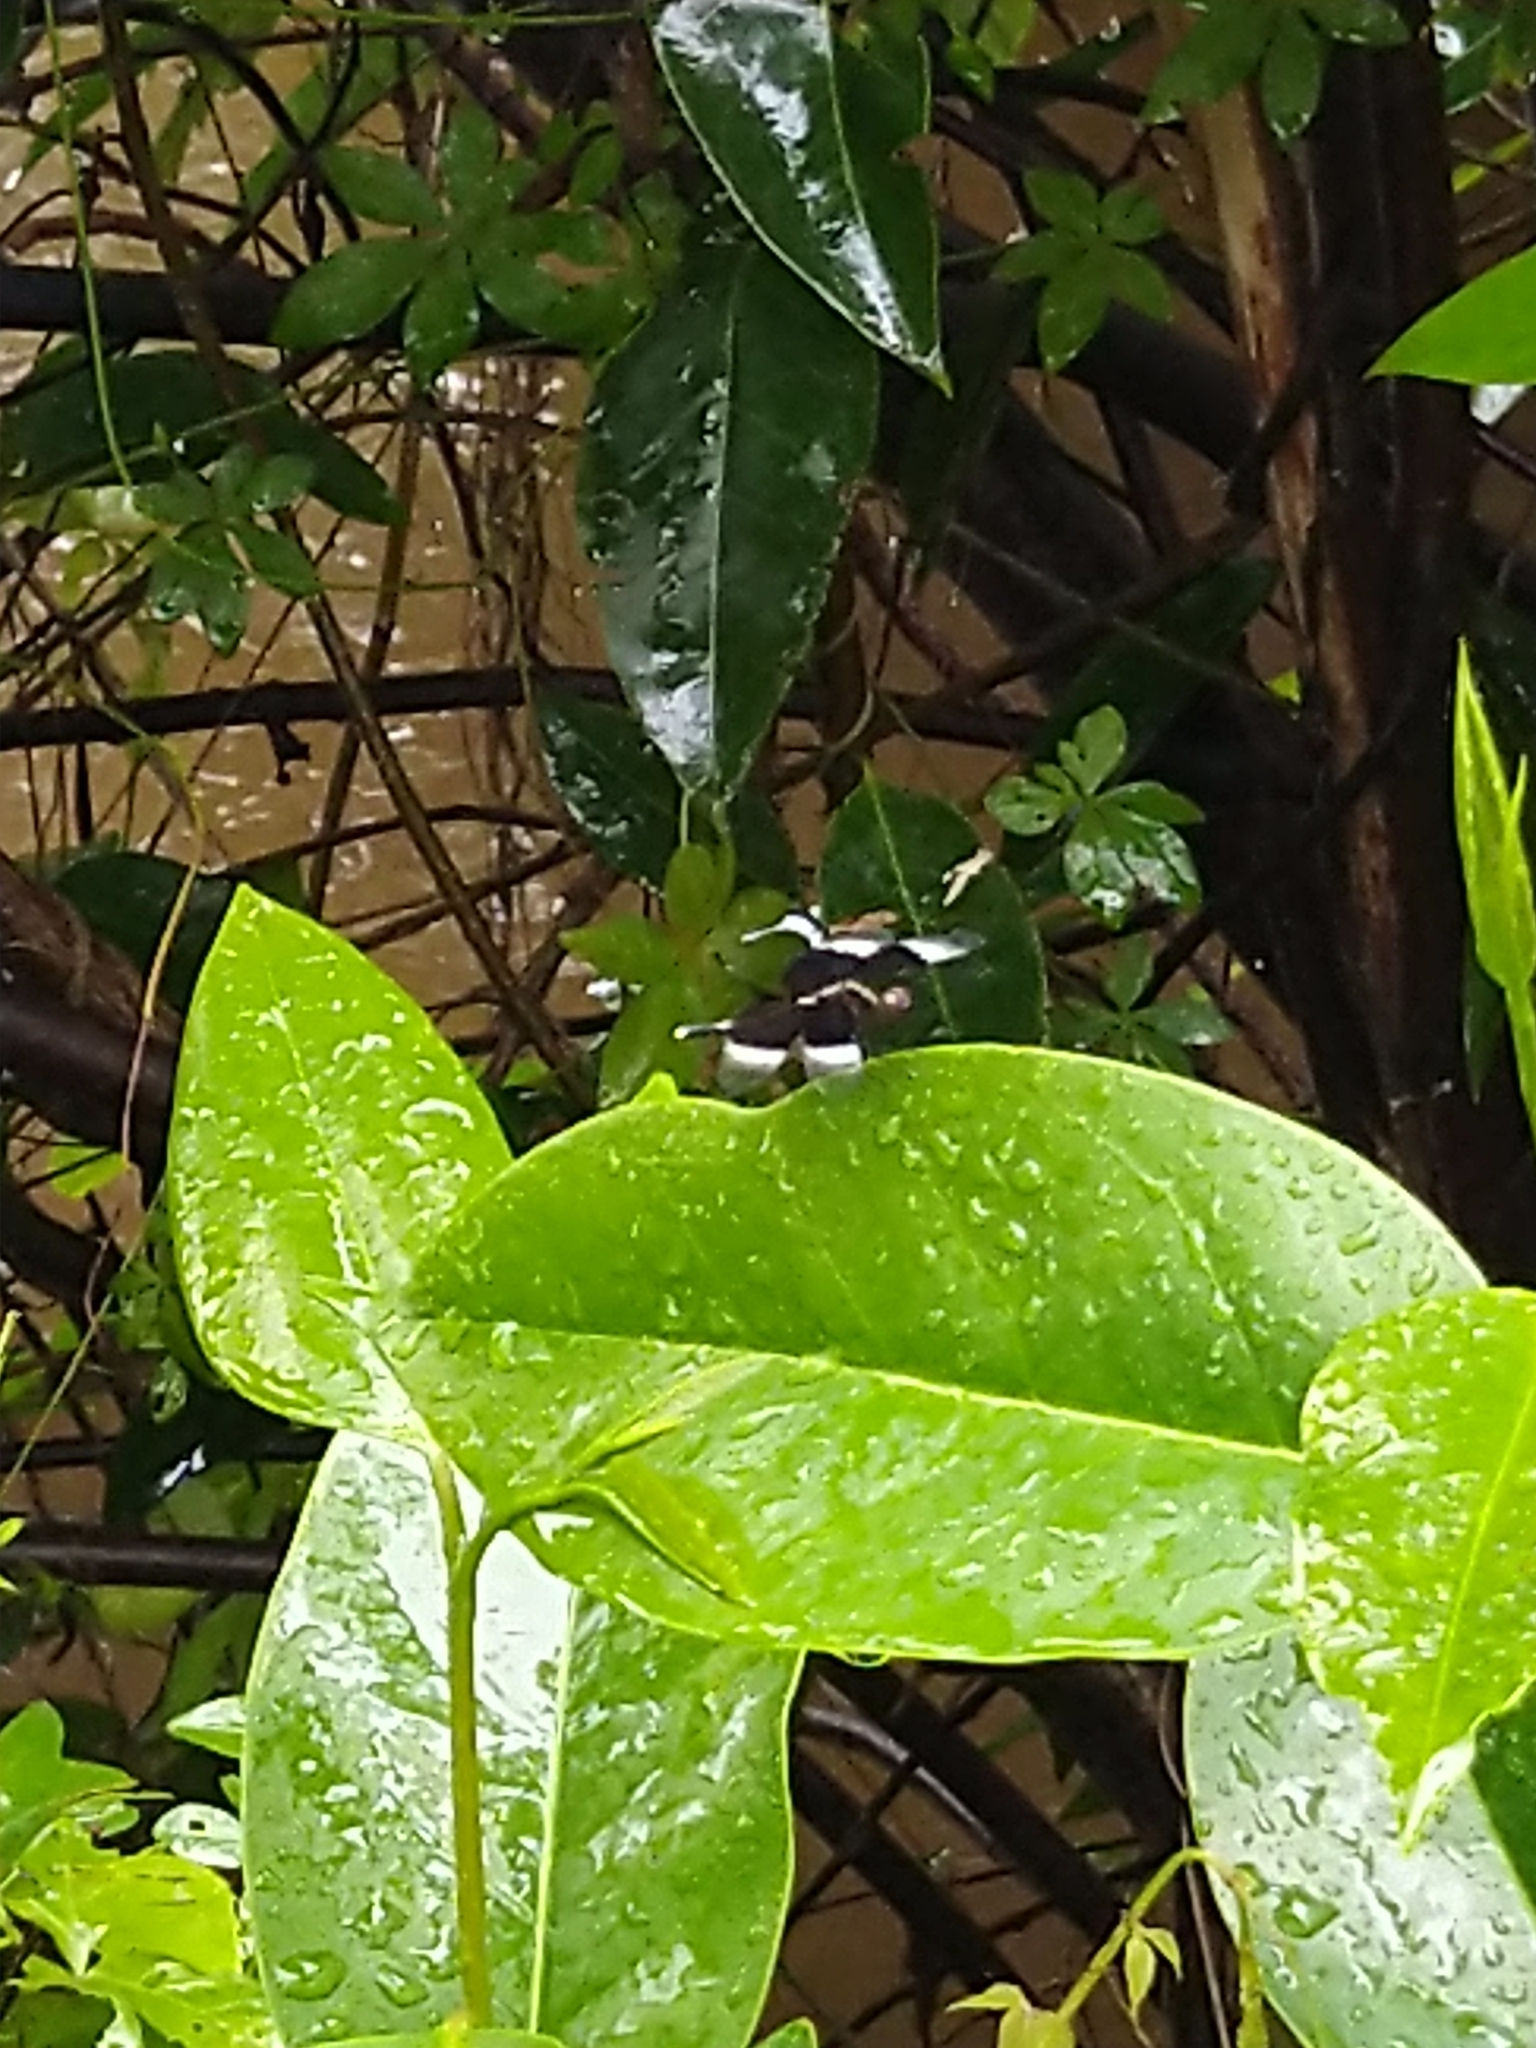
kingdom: Animalia
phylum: Arthropoda
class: Insecta
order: Odonata
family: Libellulidae
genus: Neurothemis
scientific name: Neurothemis tullia
